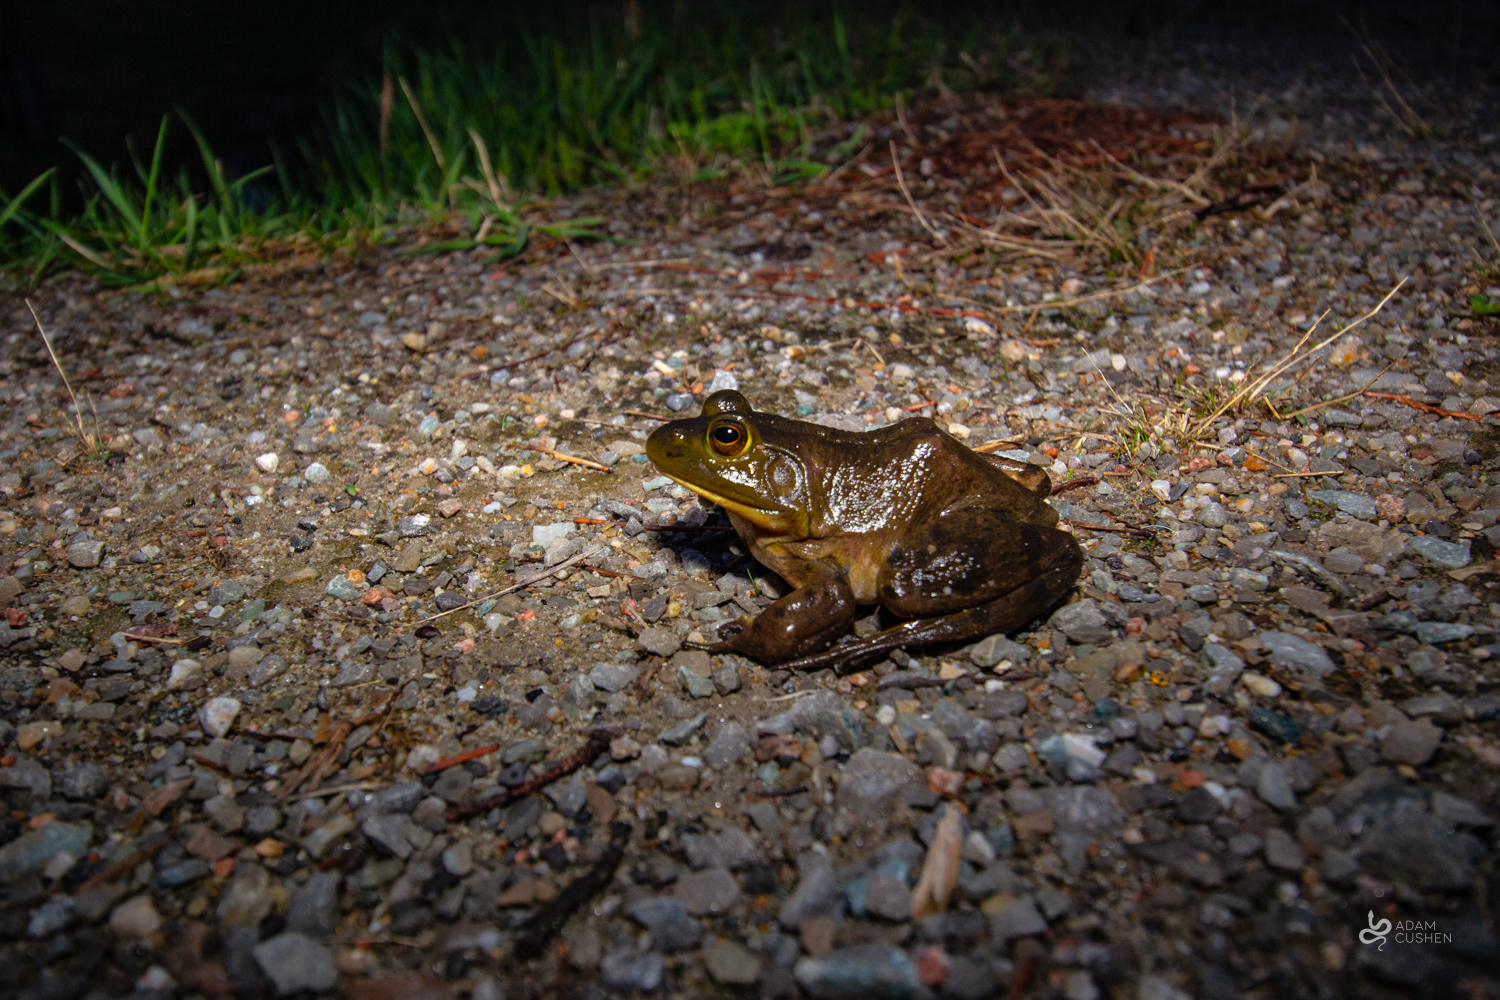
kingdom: Animalia
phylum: Chordata
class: Amphibia
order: Anura
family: Ranidae
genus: Lithobates
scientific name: Lithobates catesbeianus
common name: American bullfrog
